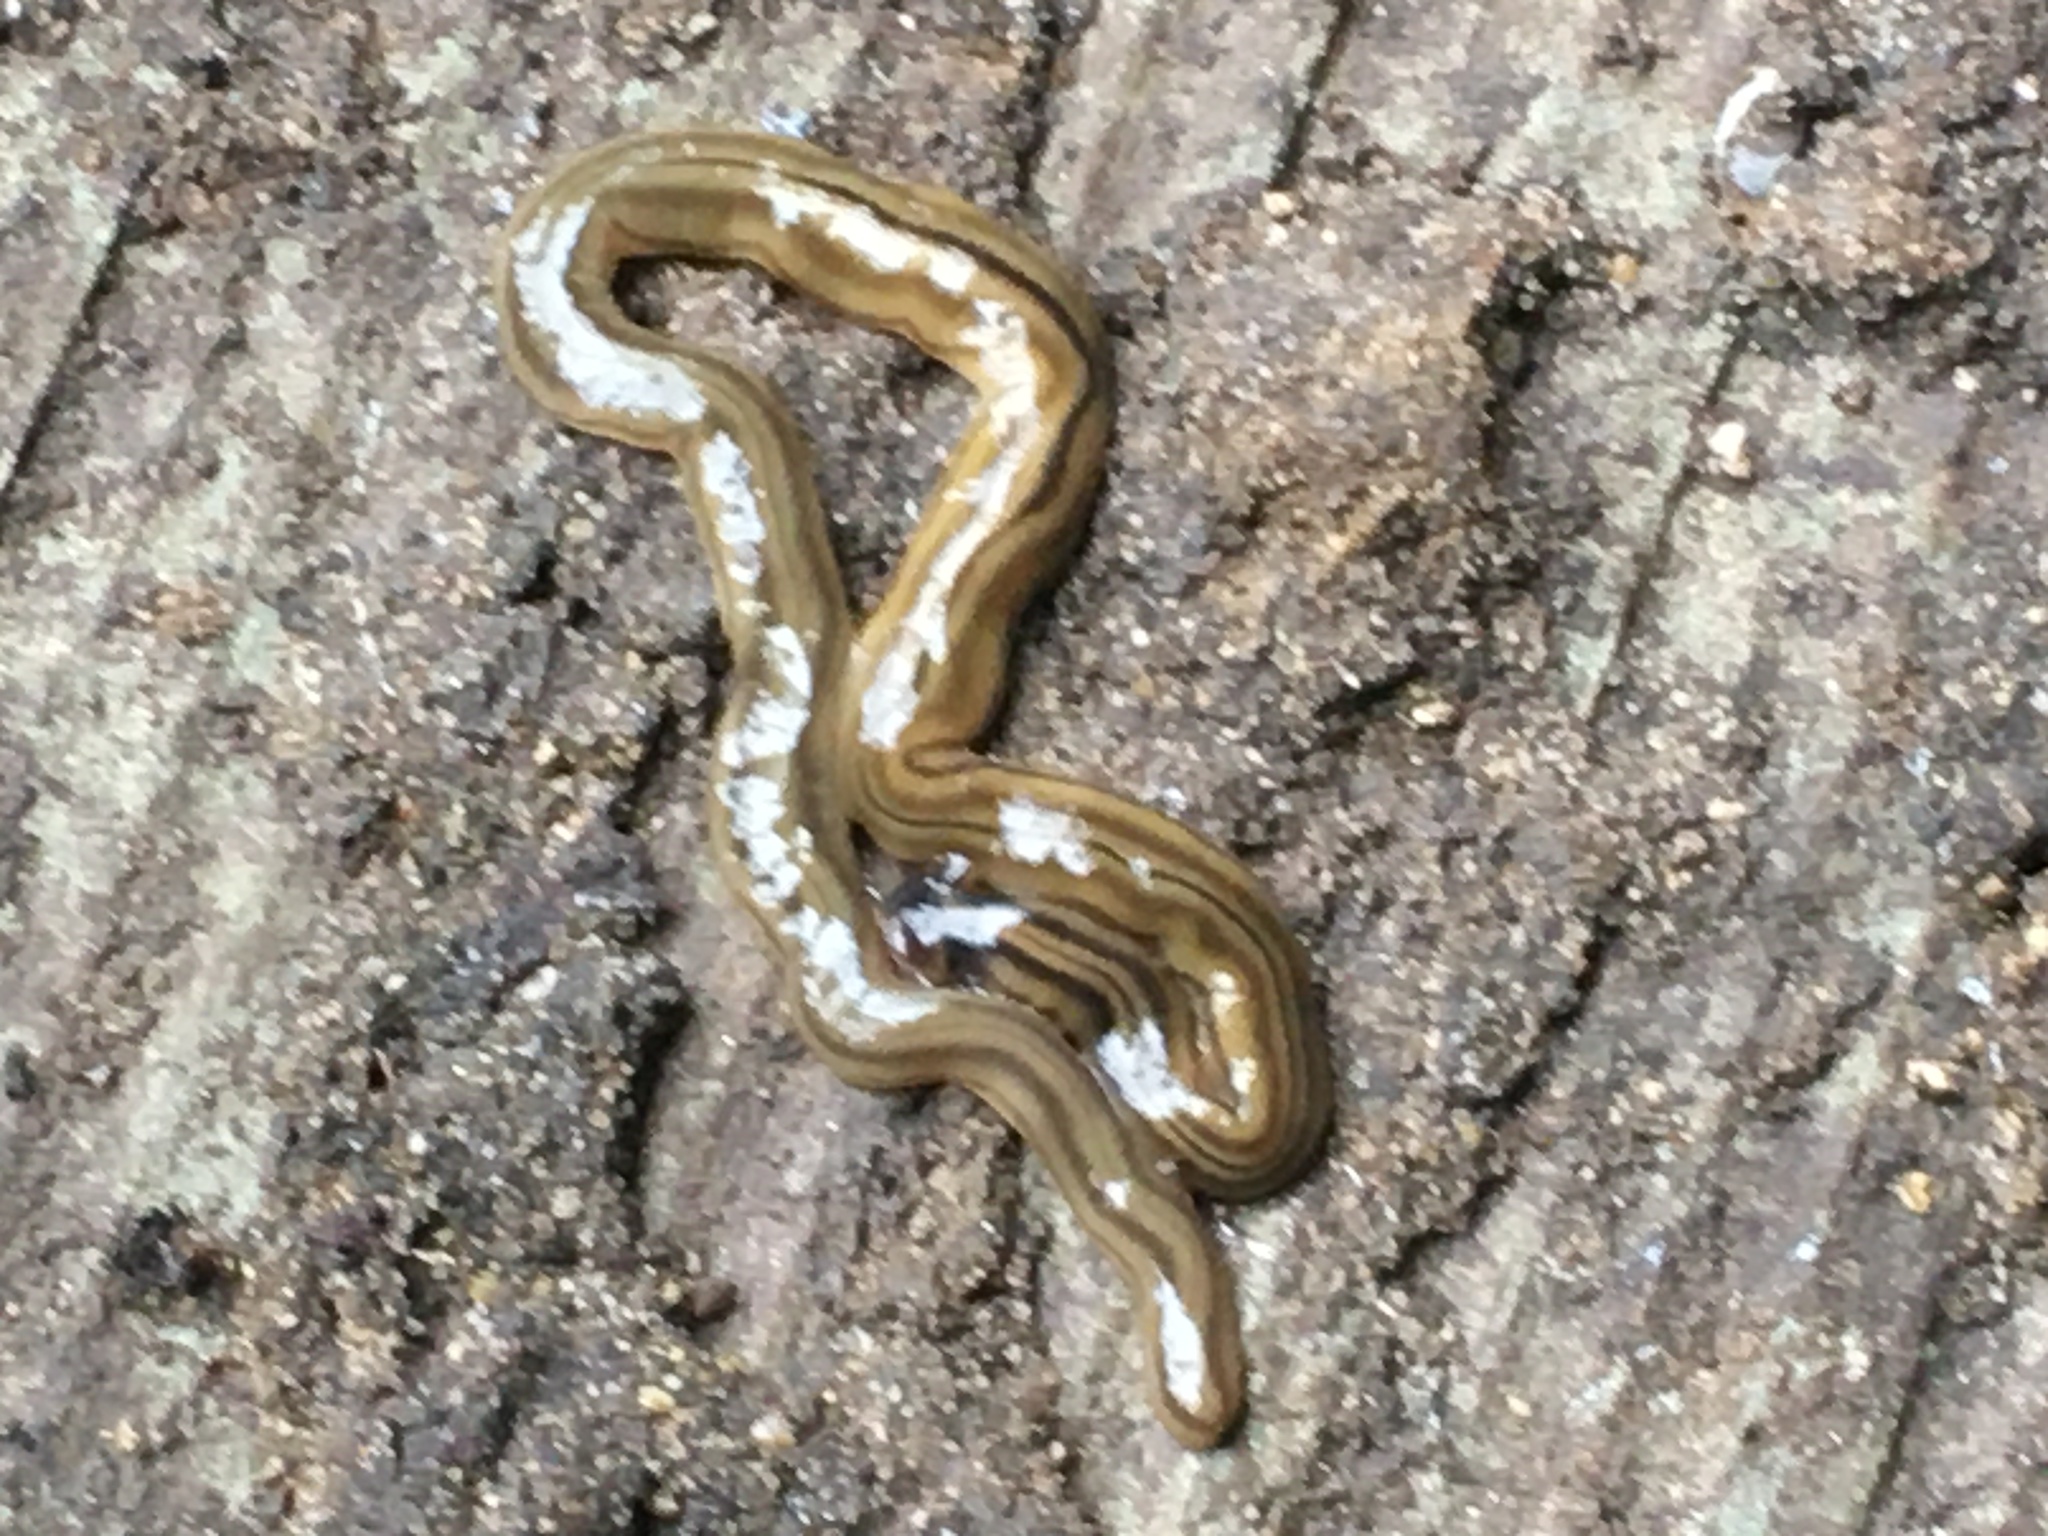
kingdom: Animalia
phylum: Platyhelminthes
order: Tricladida
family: Geoplanidae
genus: Bipalium
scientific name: Bipalium kewense
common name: Hammerhead flatworm
